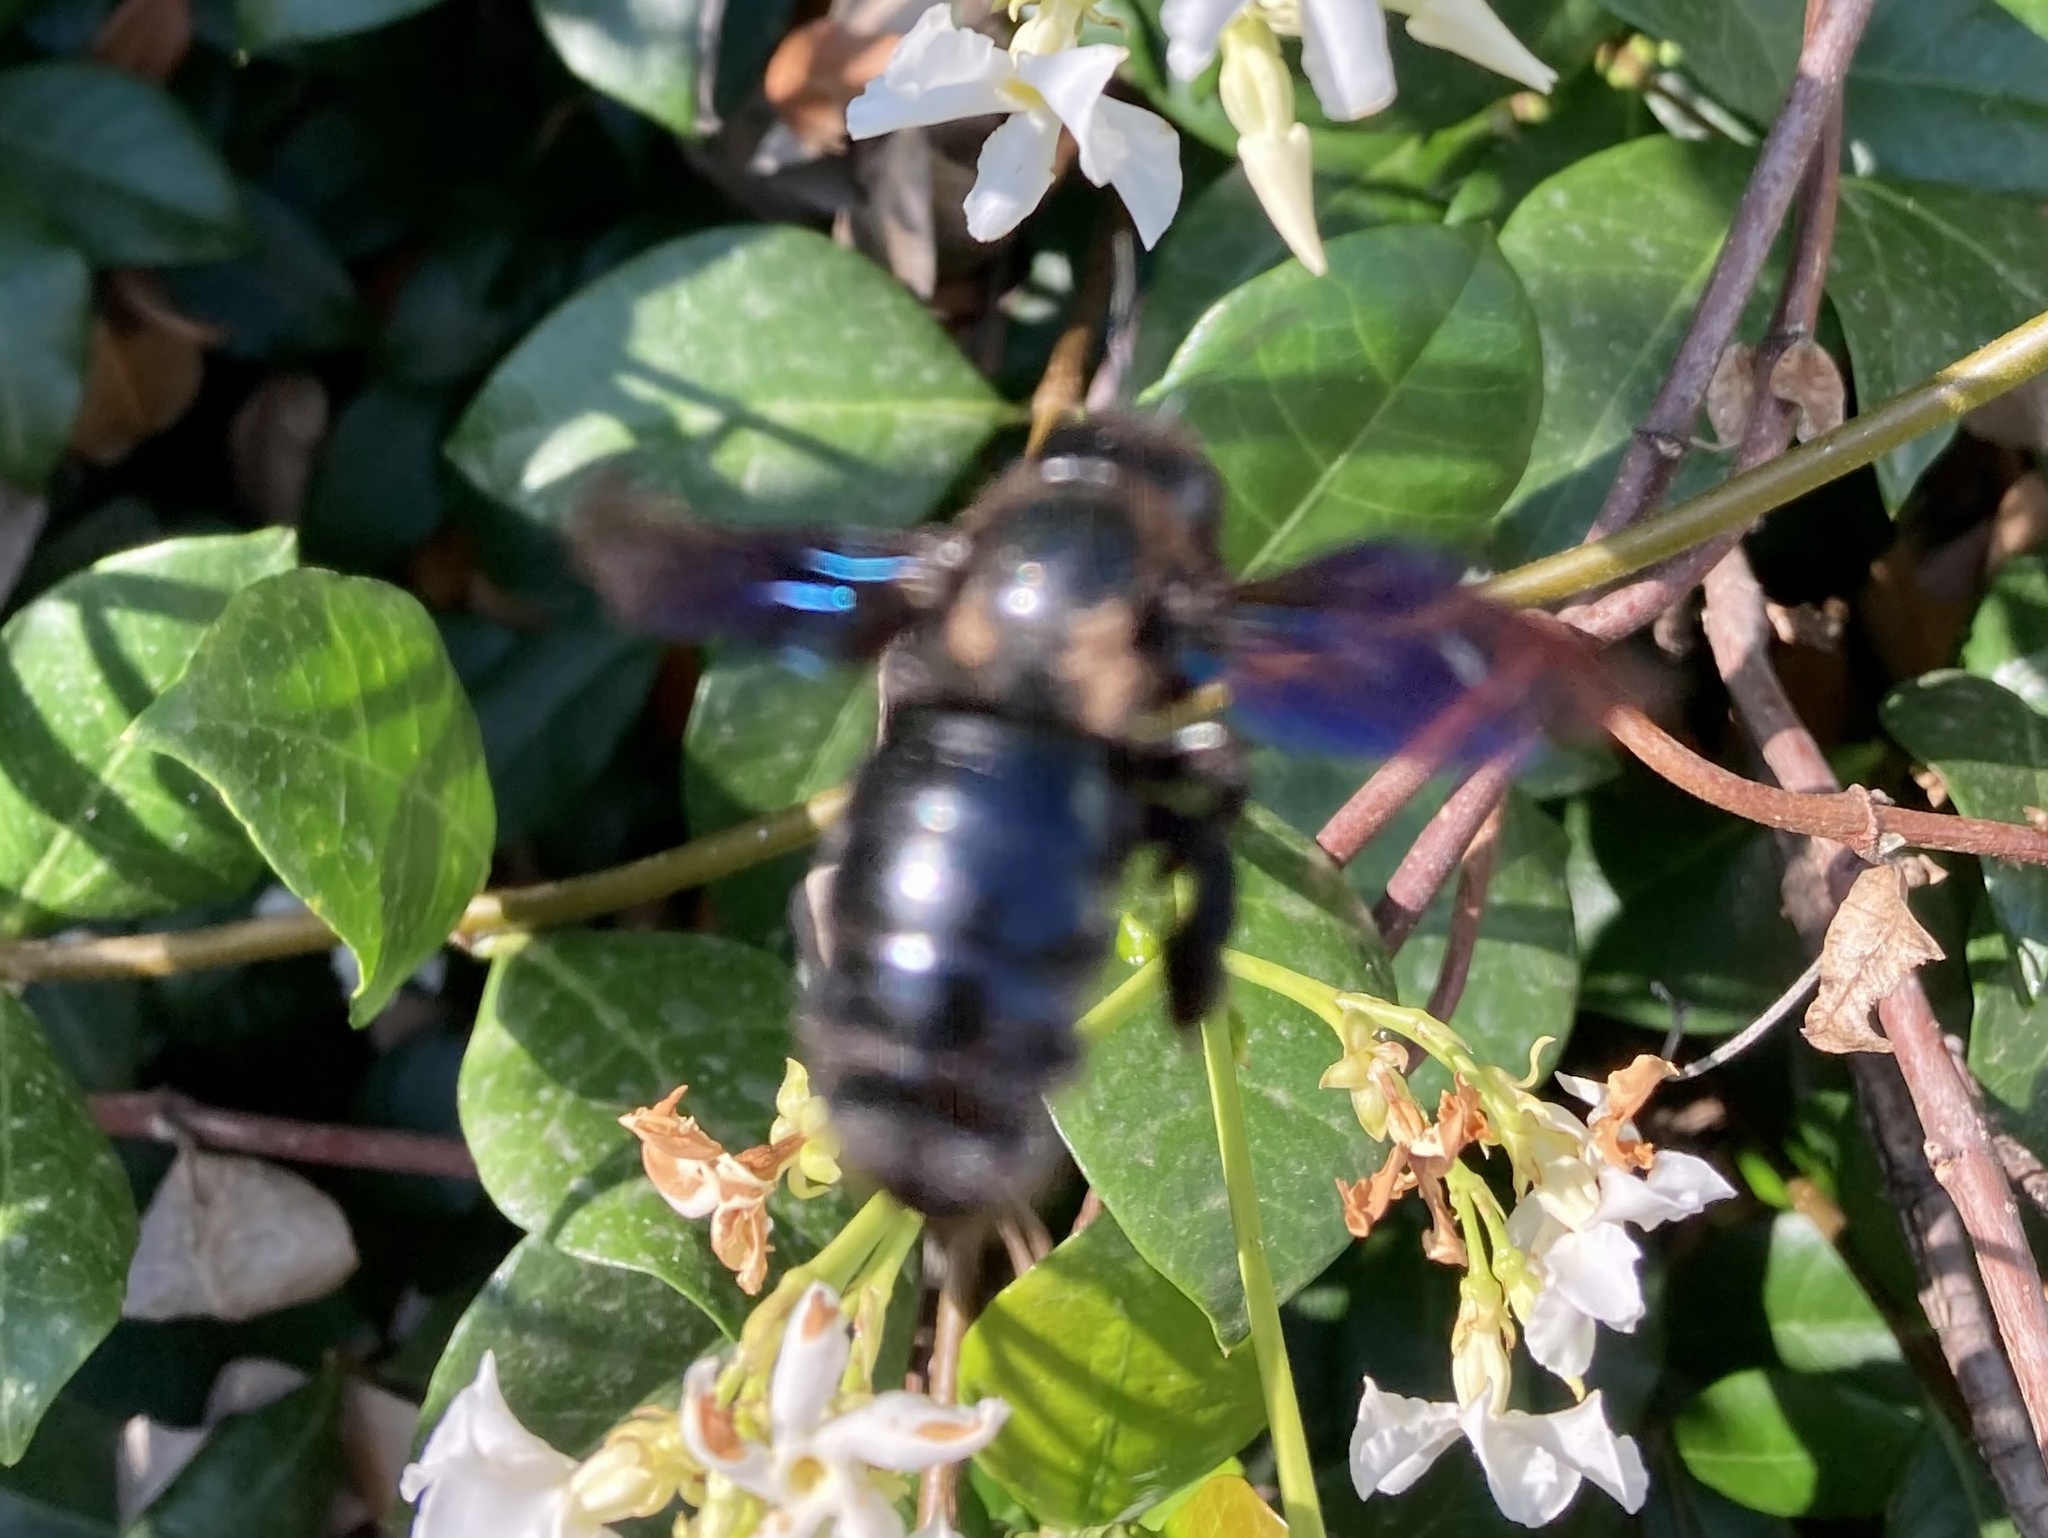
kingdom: Animalia
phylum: Arthropoda
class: Insecta
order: Hymenoptera
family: Apidae
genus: Xylocopa
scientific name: Xylocopa violacea
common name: Violet carpenter bee
